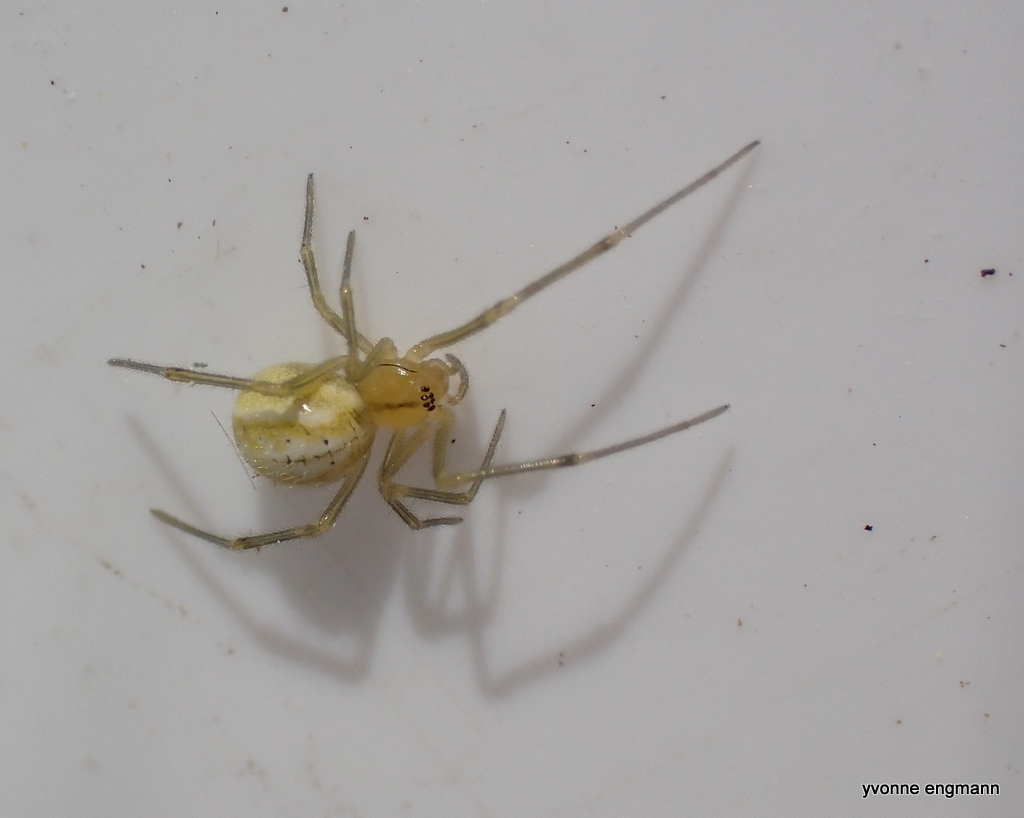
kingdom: Animalia
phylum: Arthropoda
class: Arachnida
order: Araneae
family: Theridiidae
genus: Enoplognatha
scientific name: Enoplognatha ovata
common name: Common candy-striped spider
